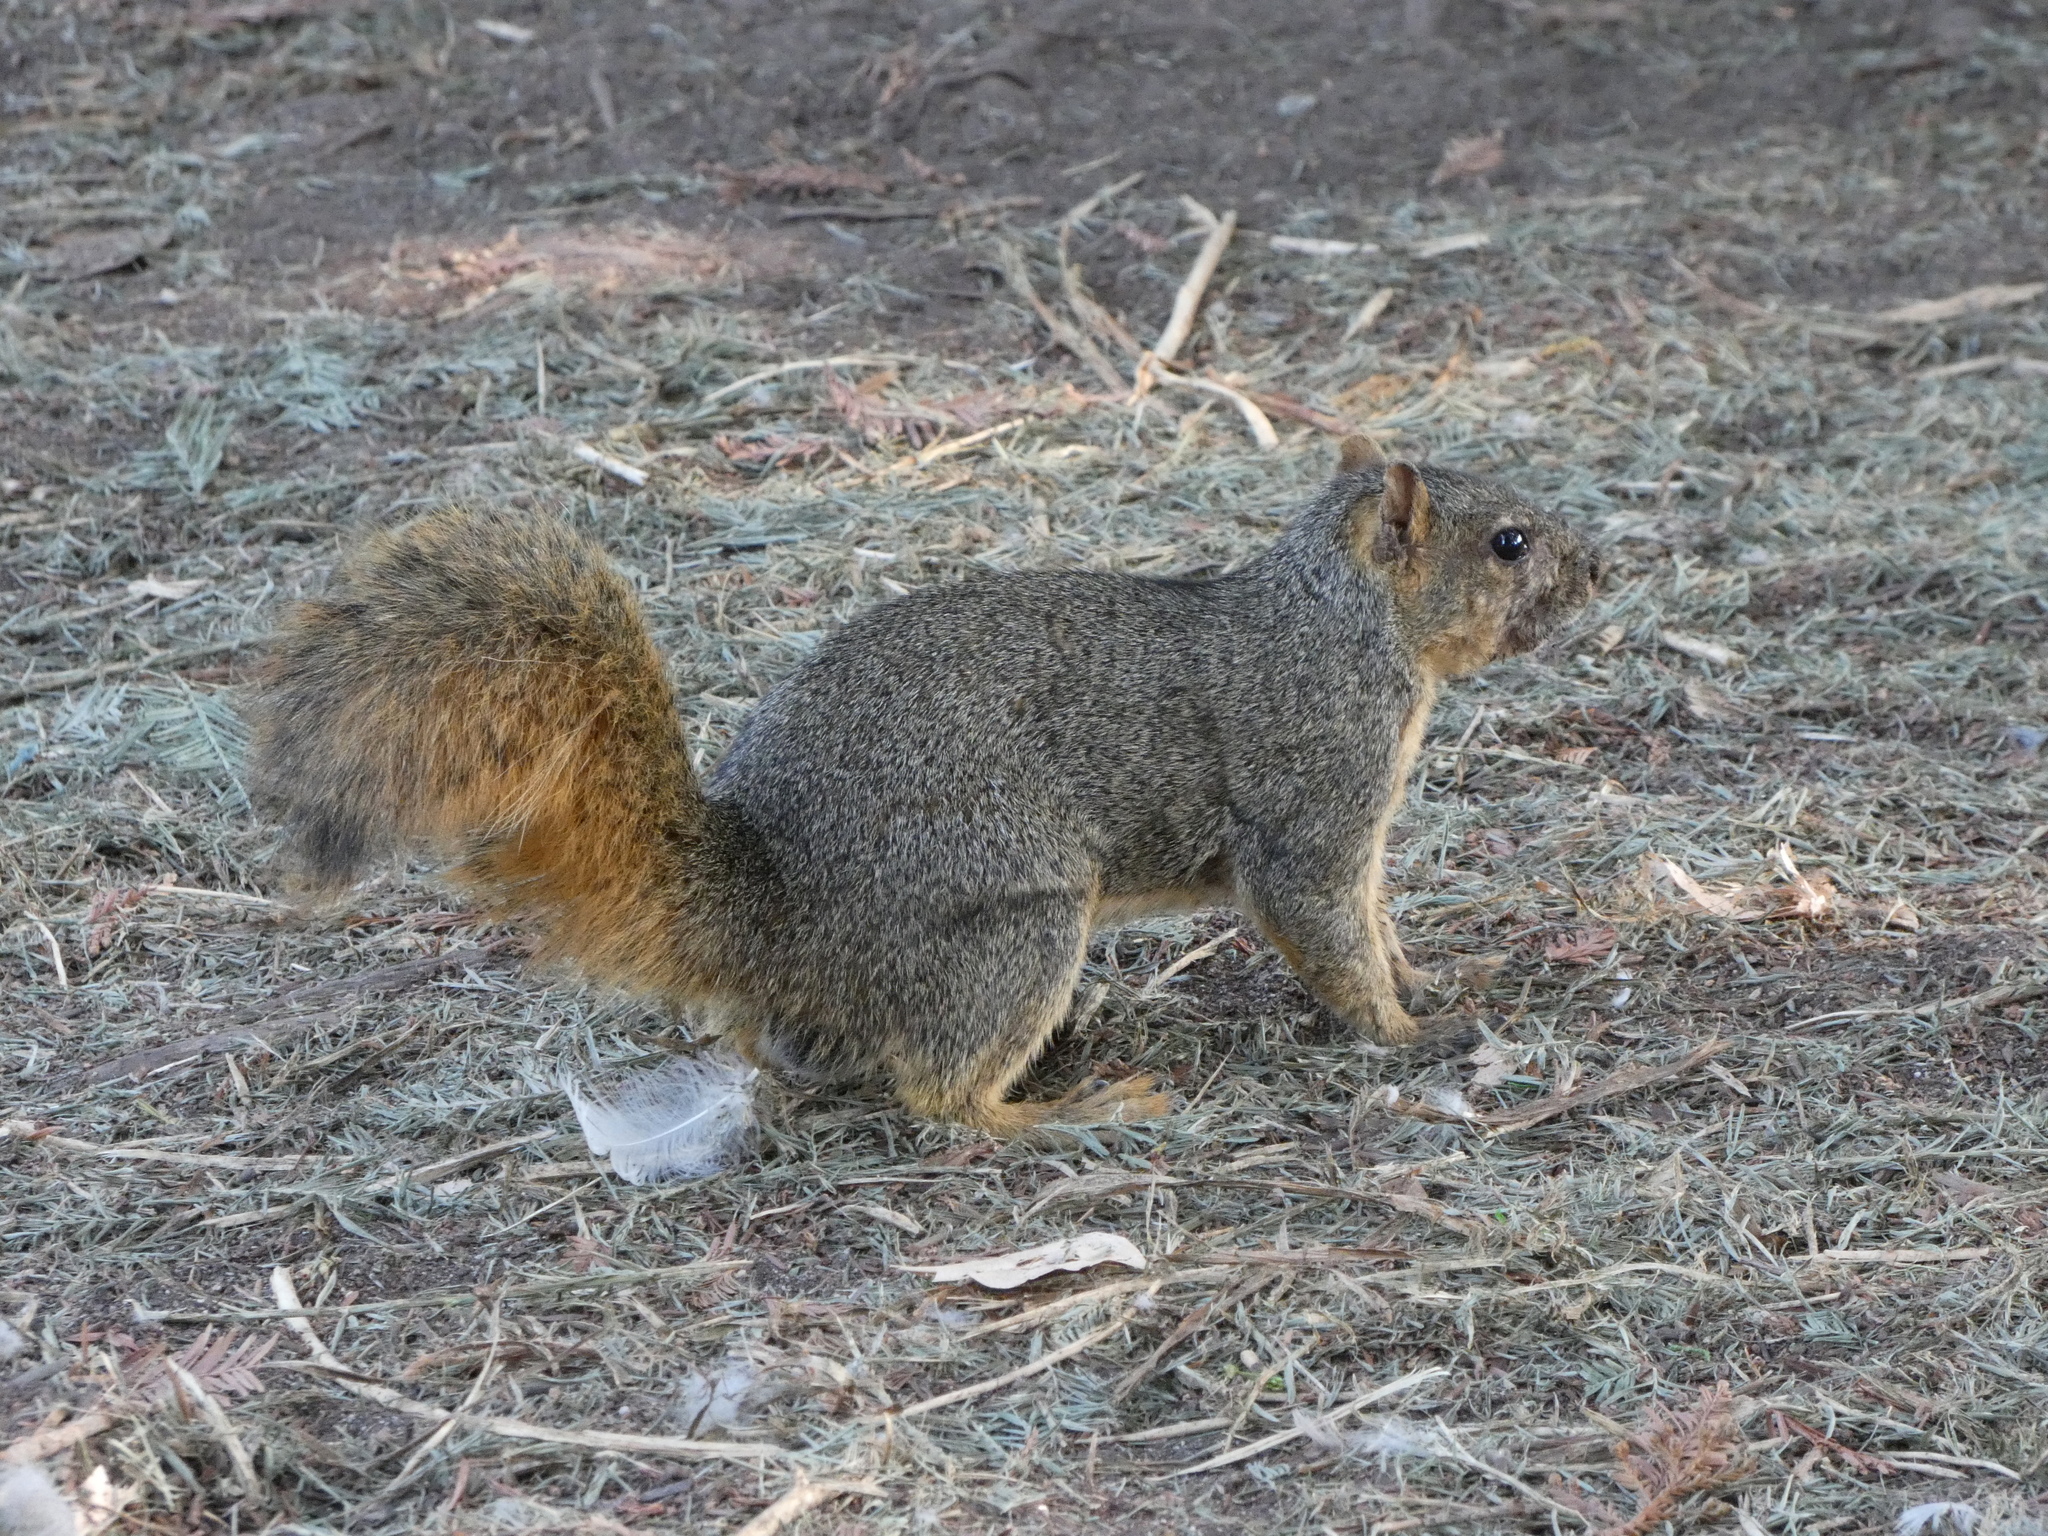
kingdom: Animalia
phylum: Chordata
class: Mammalia
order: Rodentia
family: Sciuridae
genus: Sciurus
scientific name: Sciurus niger
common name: Fox squirrel
